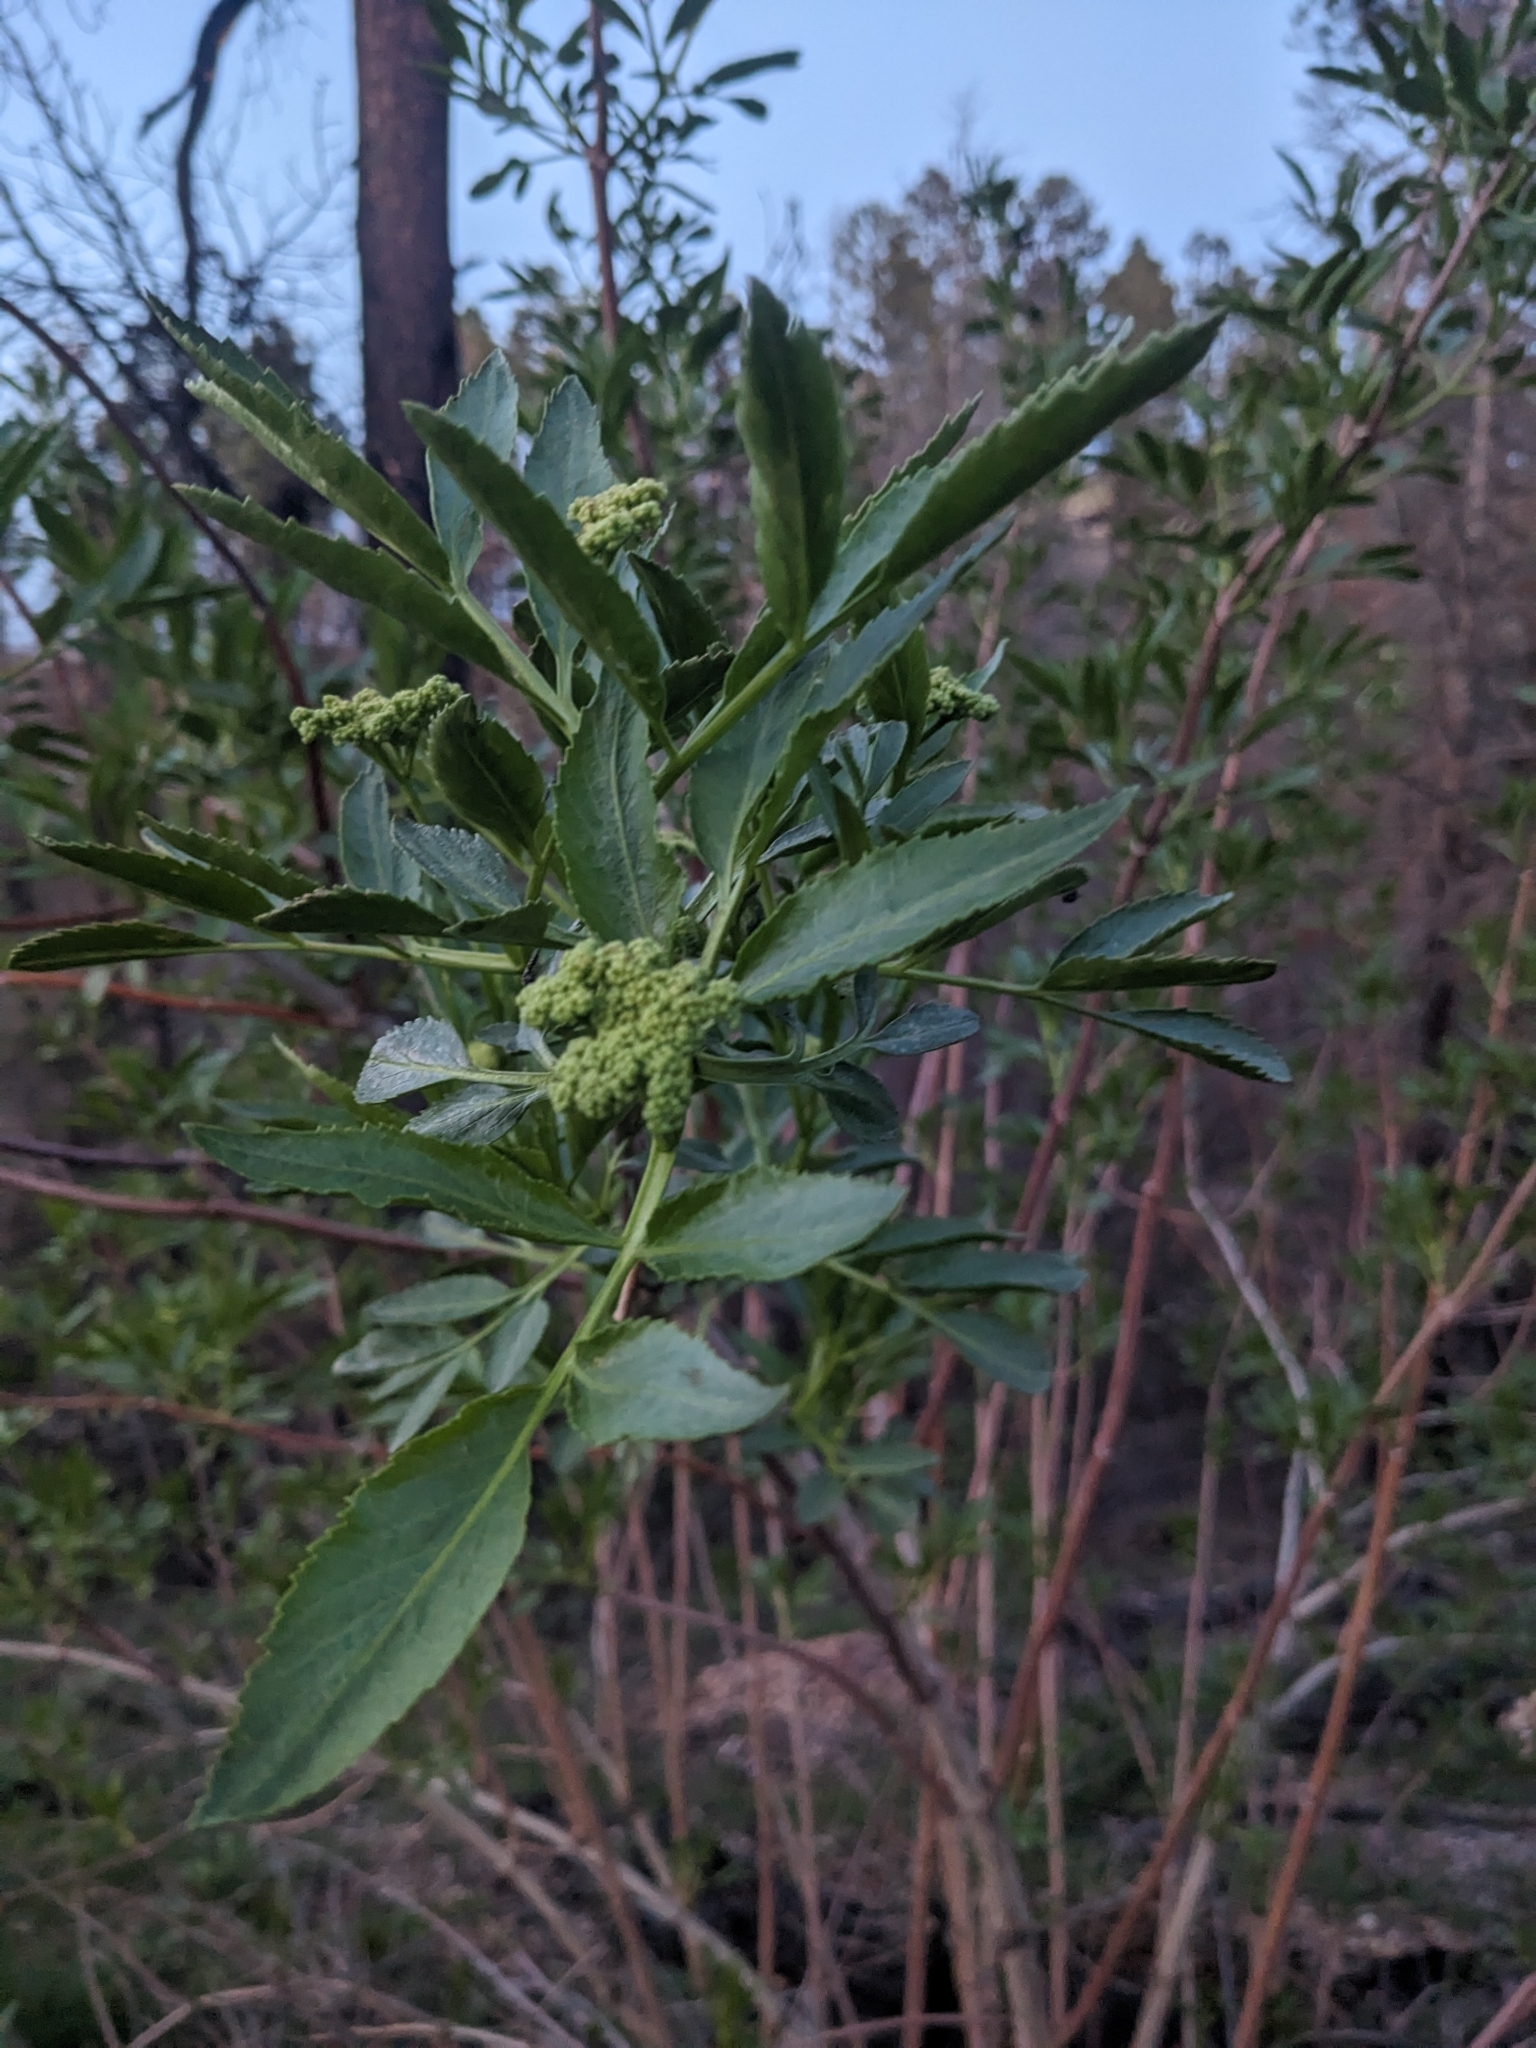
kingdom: Plantae
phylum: Tracheophyta
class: Magnoliopsida
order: Dipsacales
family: Viburnaceae
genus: Sambucus
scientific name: Sambucus cerulea
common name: Blue elder
